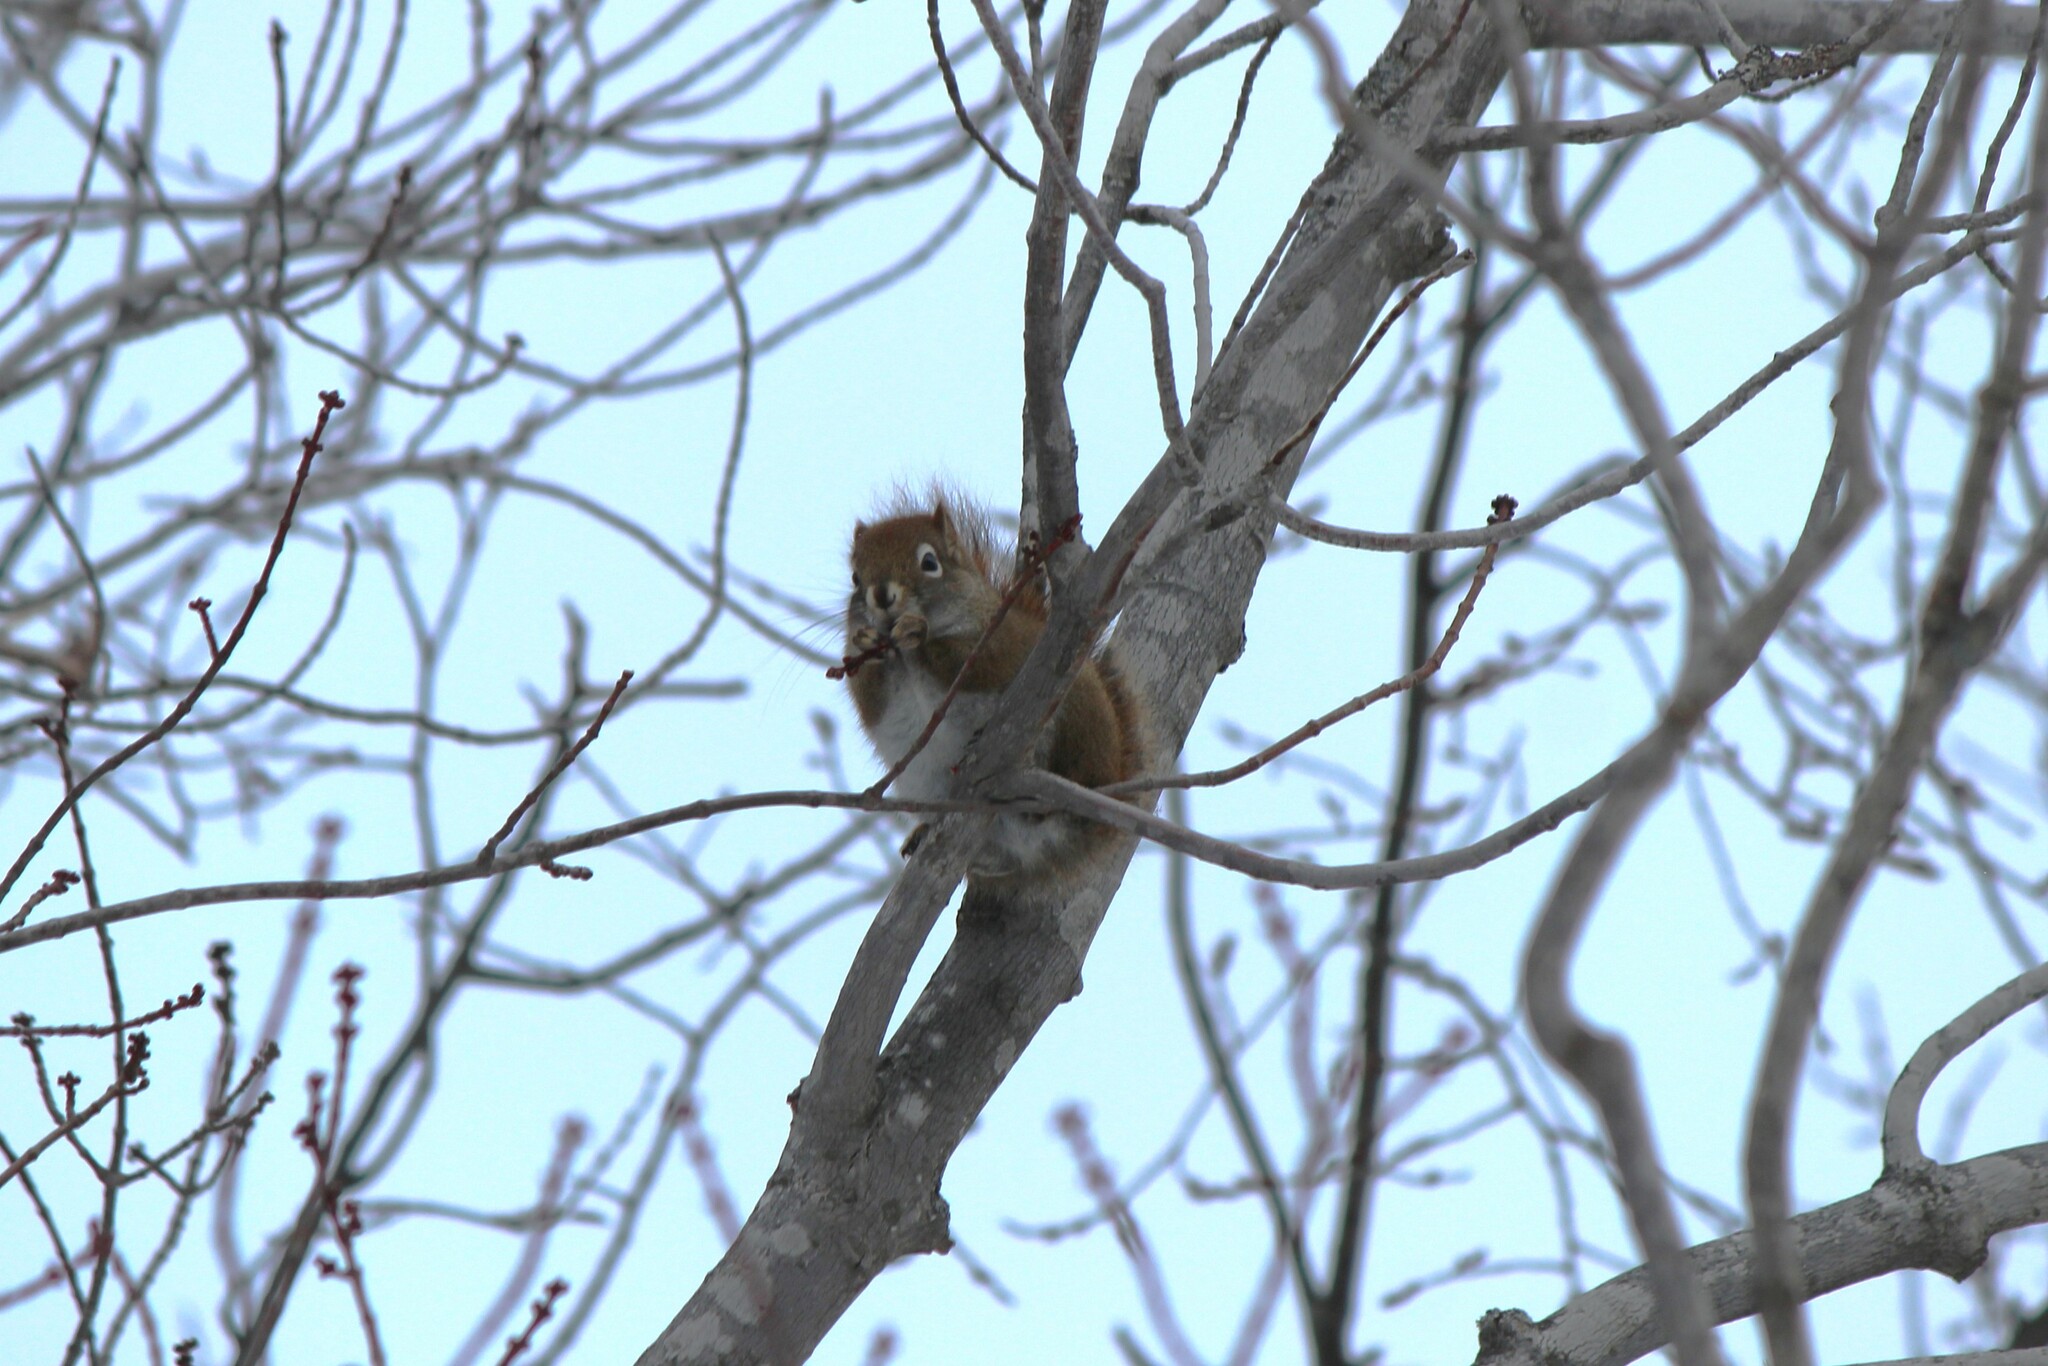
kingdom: Animalia
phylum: Chordata
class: Mammalia
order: Rodentia
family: Sciuridae
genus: Tamiasciurus
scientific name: Tamiasciurus hudsonicus
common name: Red squirrel
